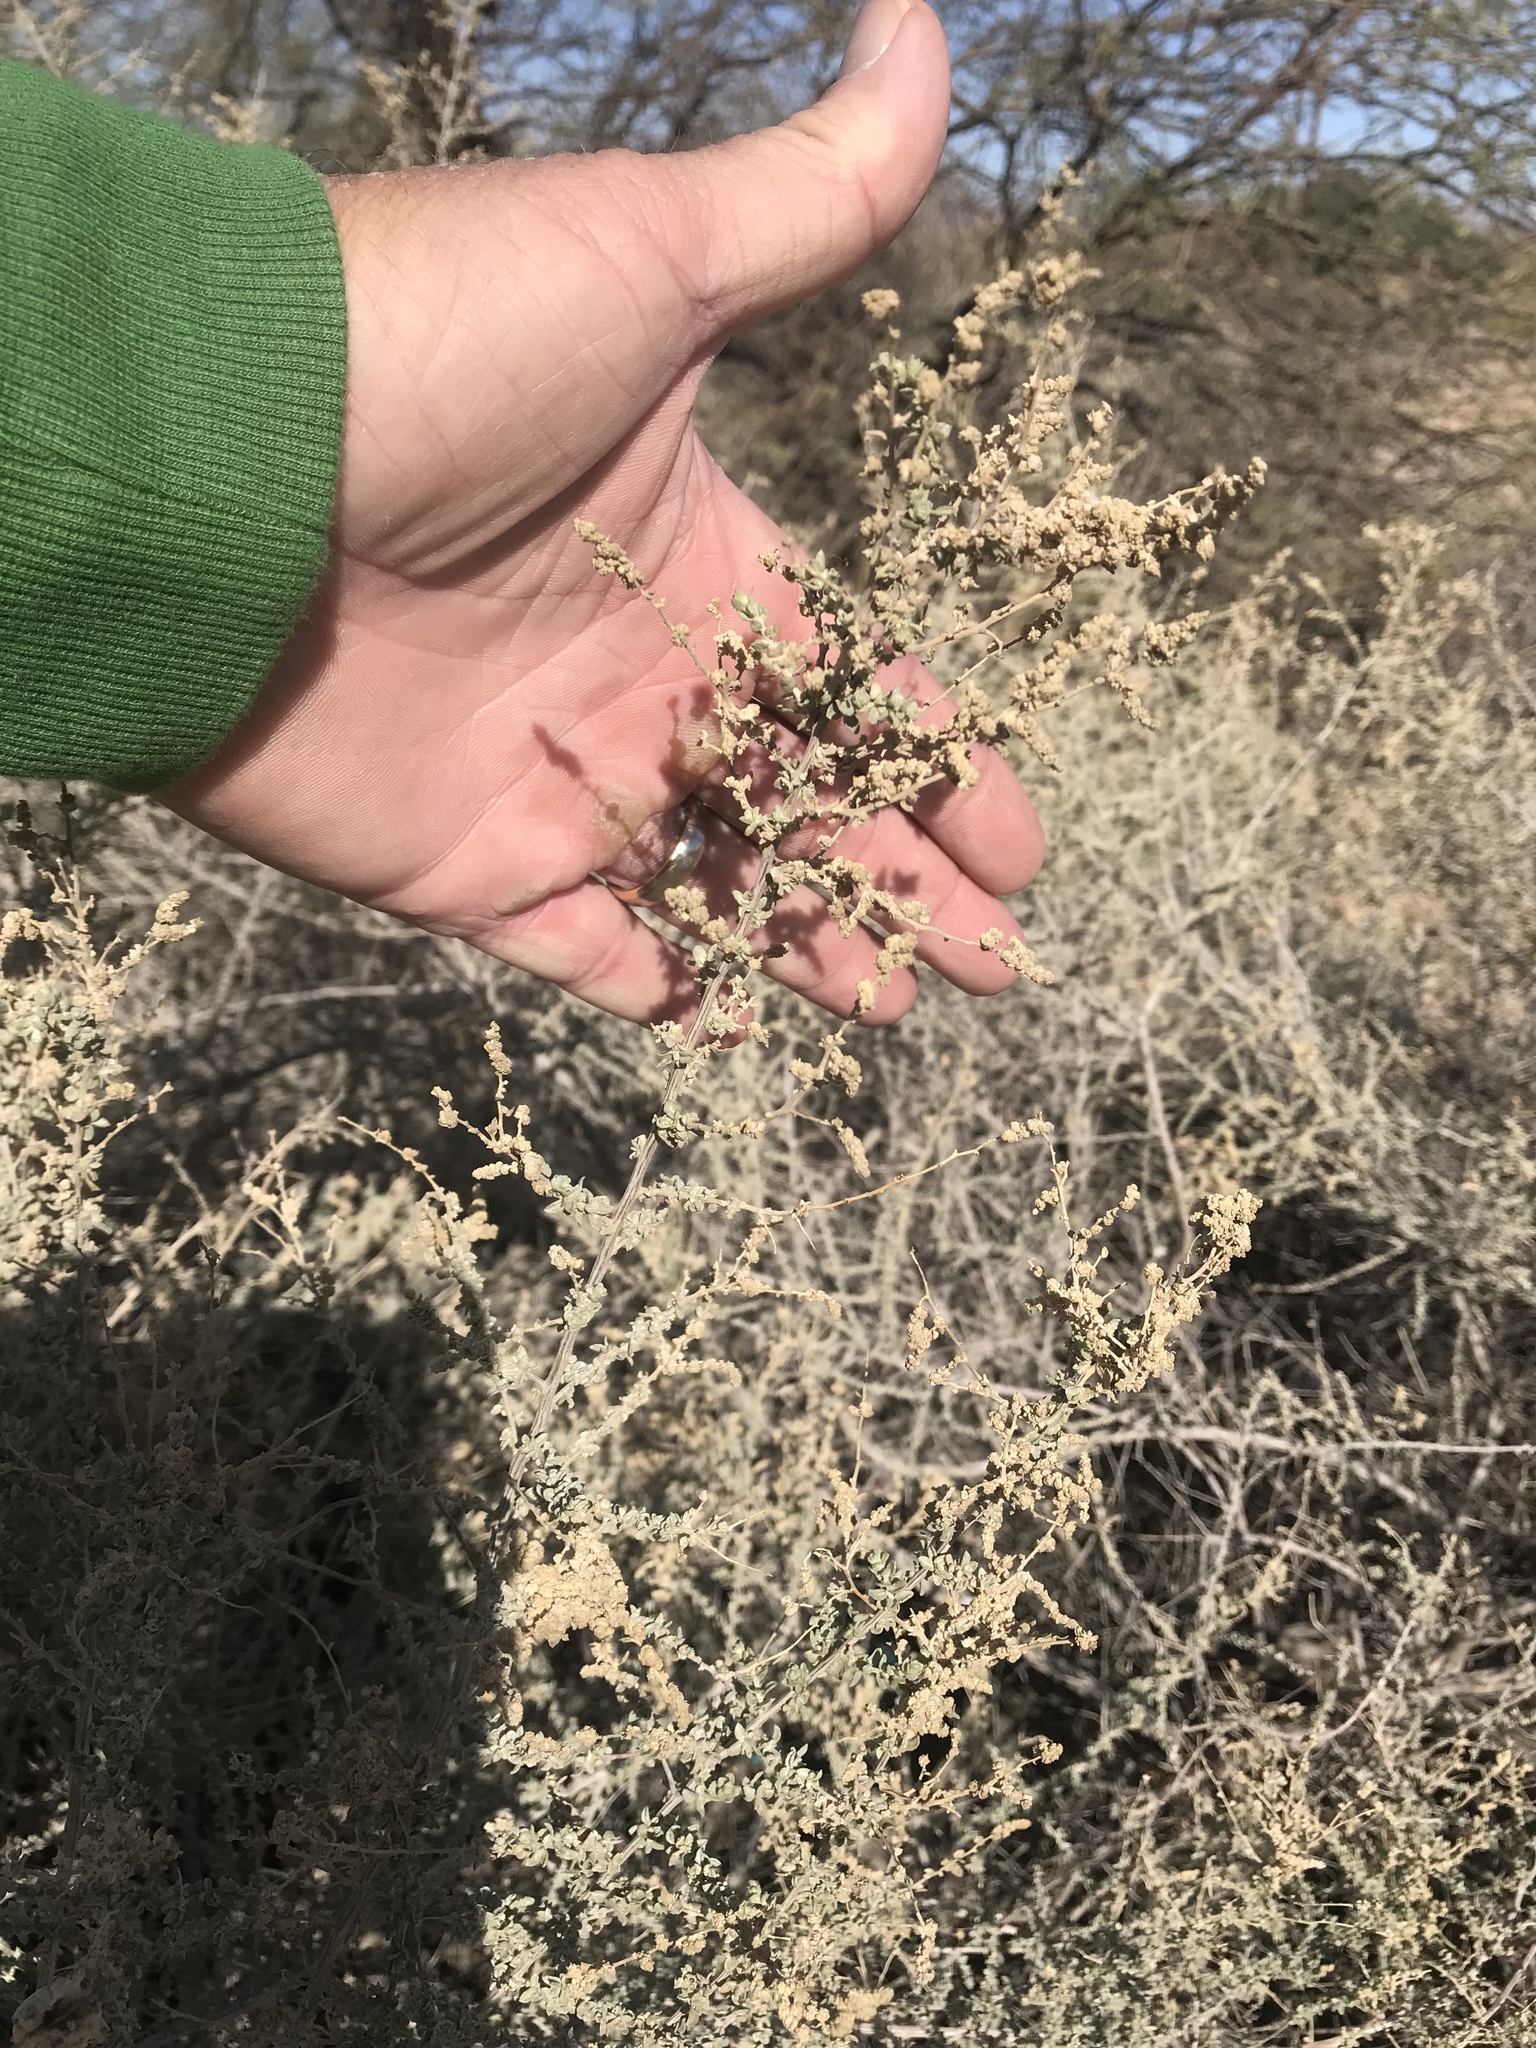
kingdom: Plantae
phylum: Tracheophyta
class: Magnoliopsida
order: Caryophyllales
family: Amaranthaceae
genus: Atriplex
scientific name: Atriplex polycarpa
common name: Desert saltbush
